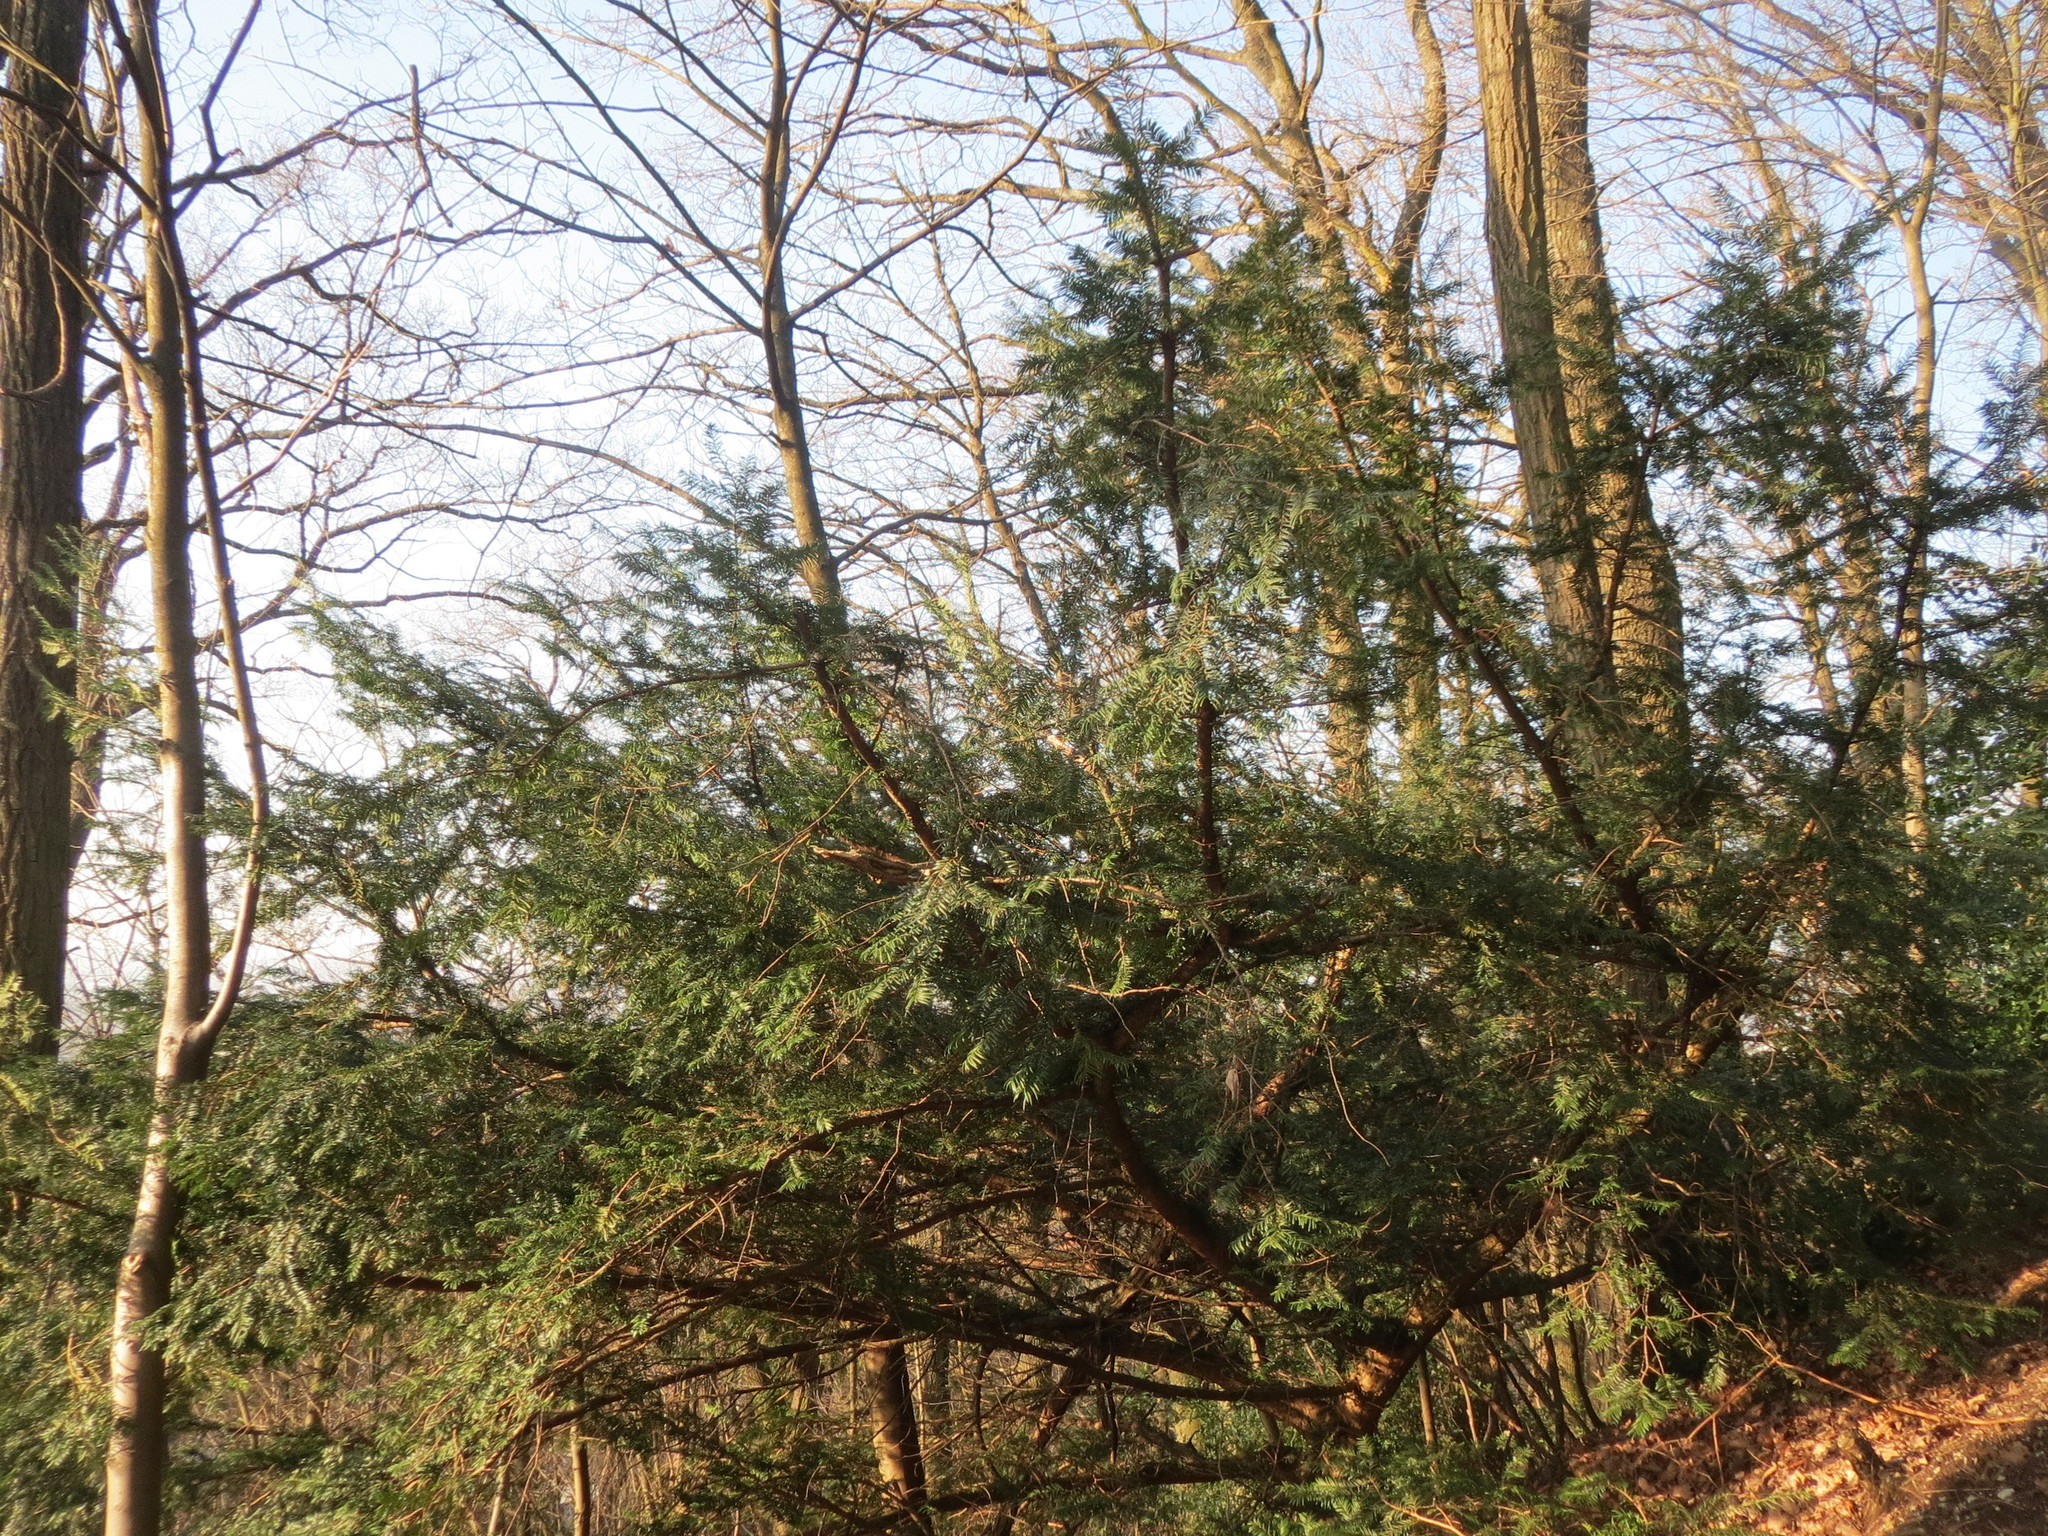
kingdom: Plantae
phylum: Tracheophyta
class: Pinopsida
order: Pinales
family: Taxaceae
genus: Taxus
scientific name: Taxus baccata
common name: Yew
